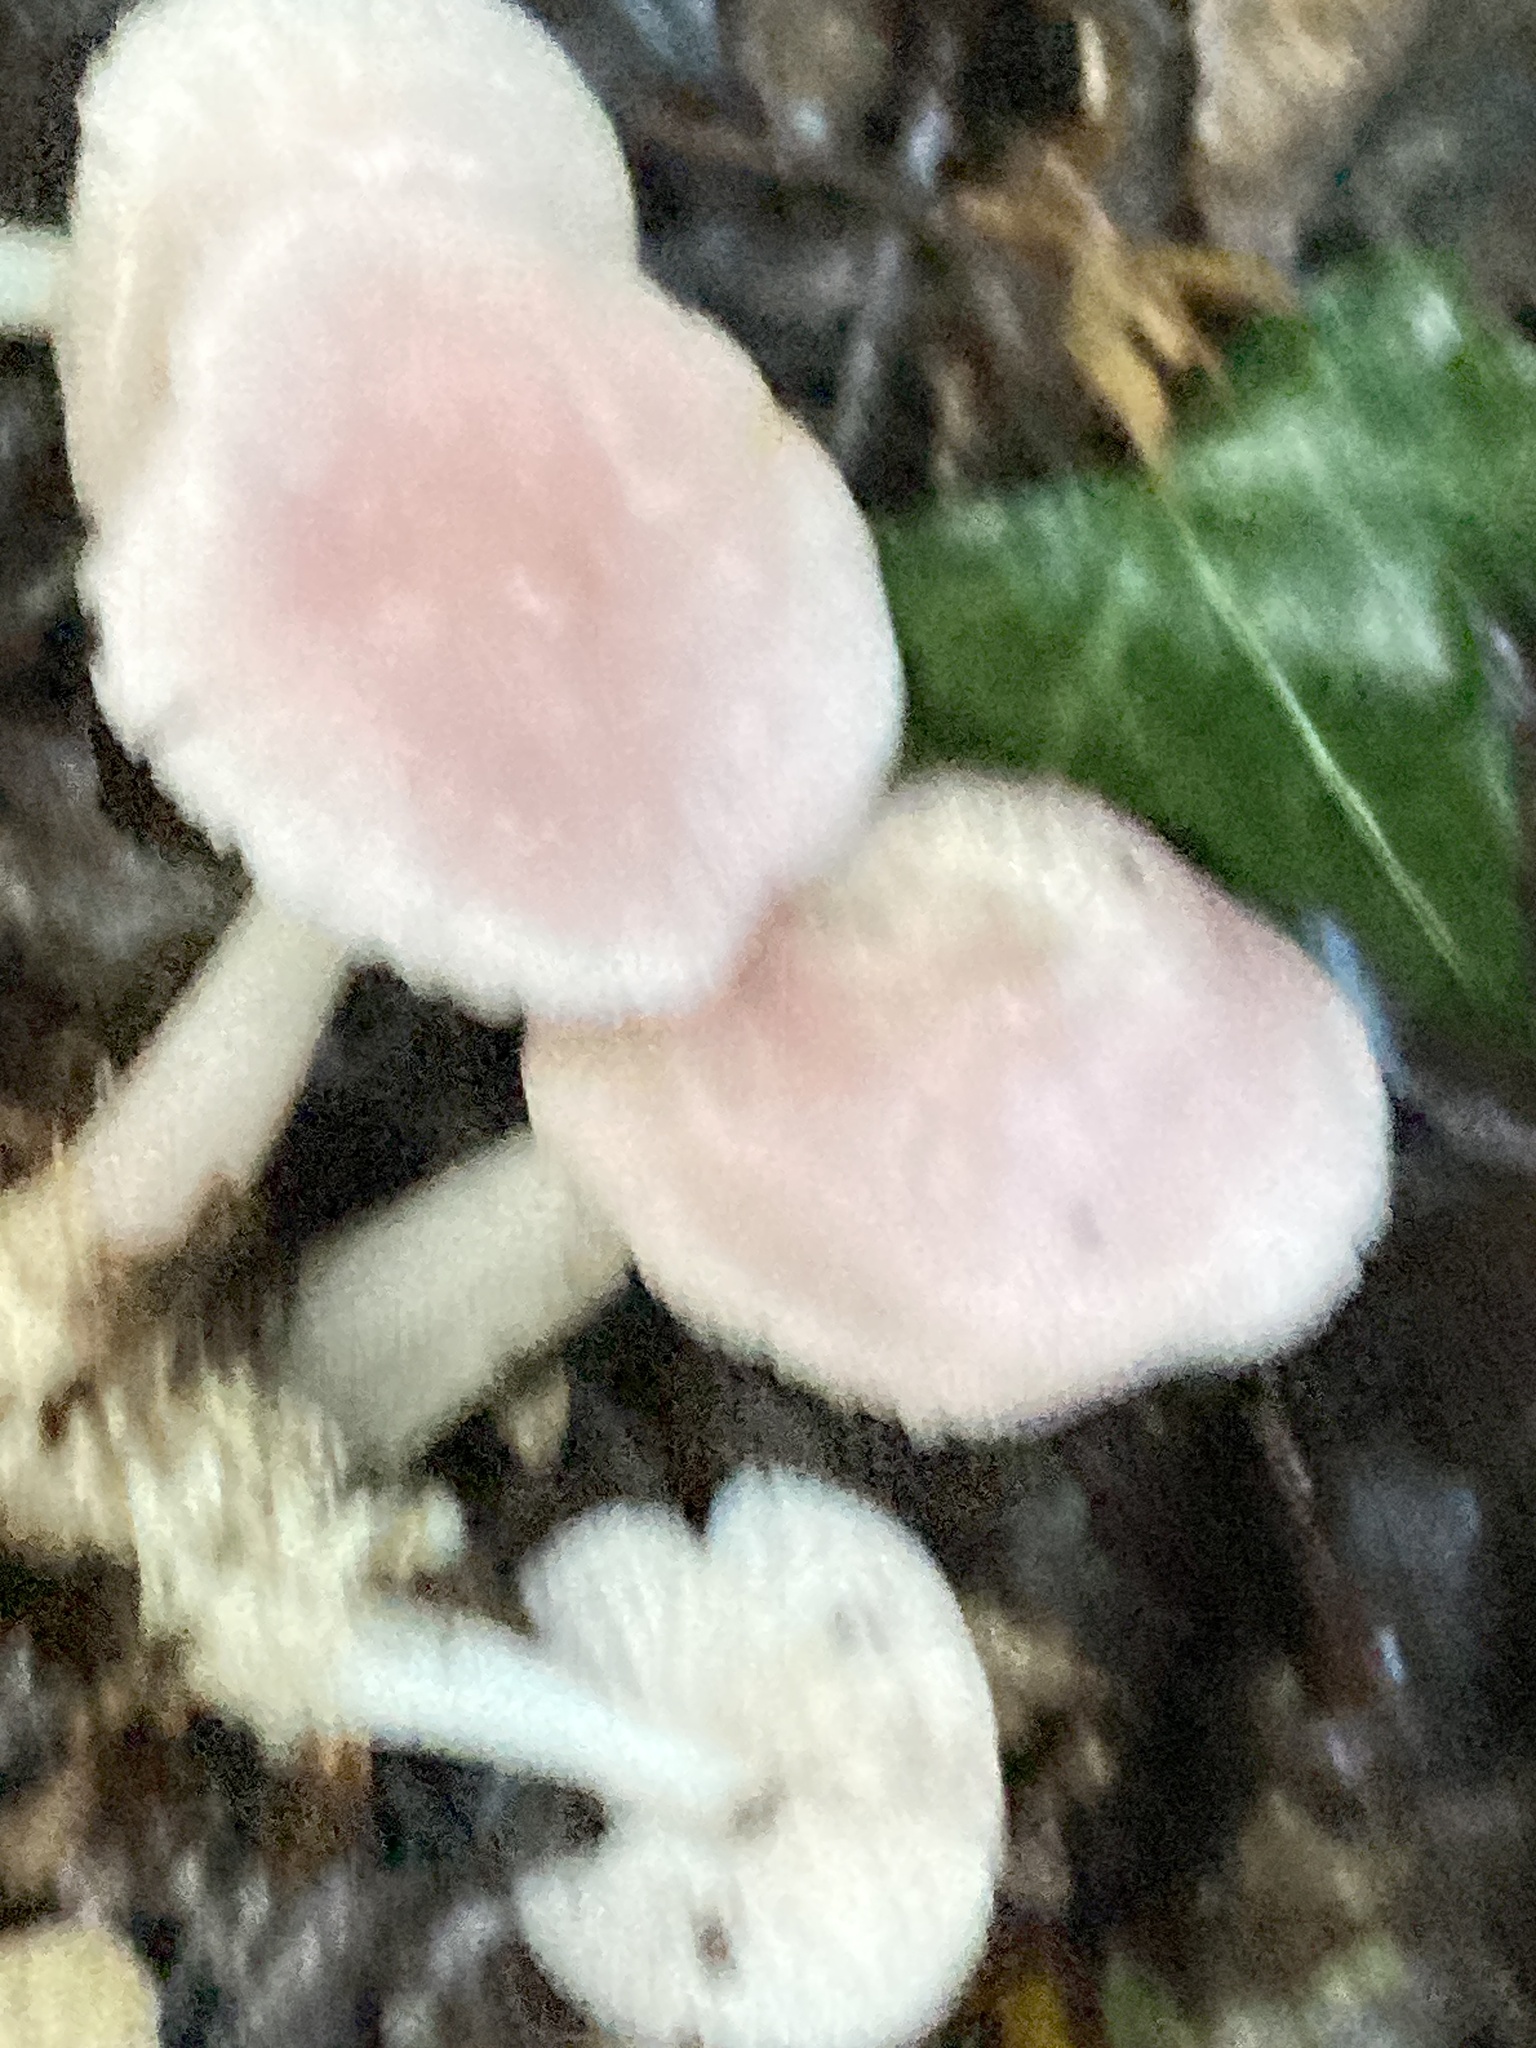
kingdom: Fungi
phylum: Basidiomycota
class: Agaricomycetes
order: Agaricales
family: Mycenaceae
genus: Mycena
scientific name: Mycena rosea
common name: Rosy bonnet
